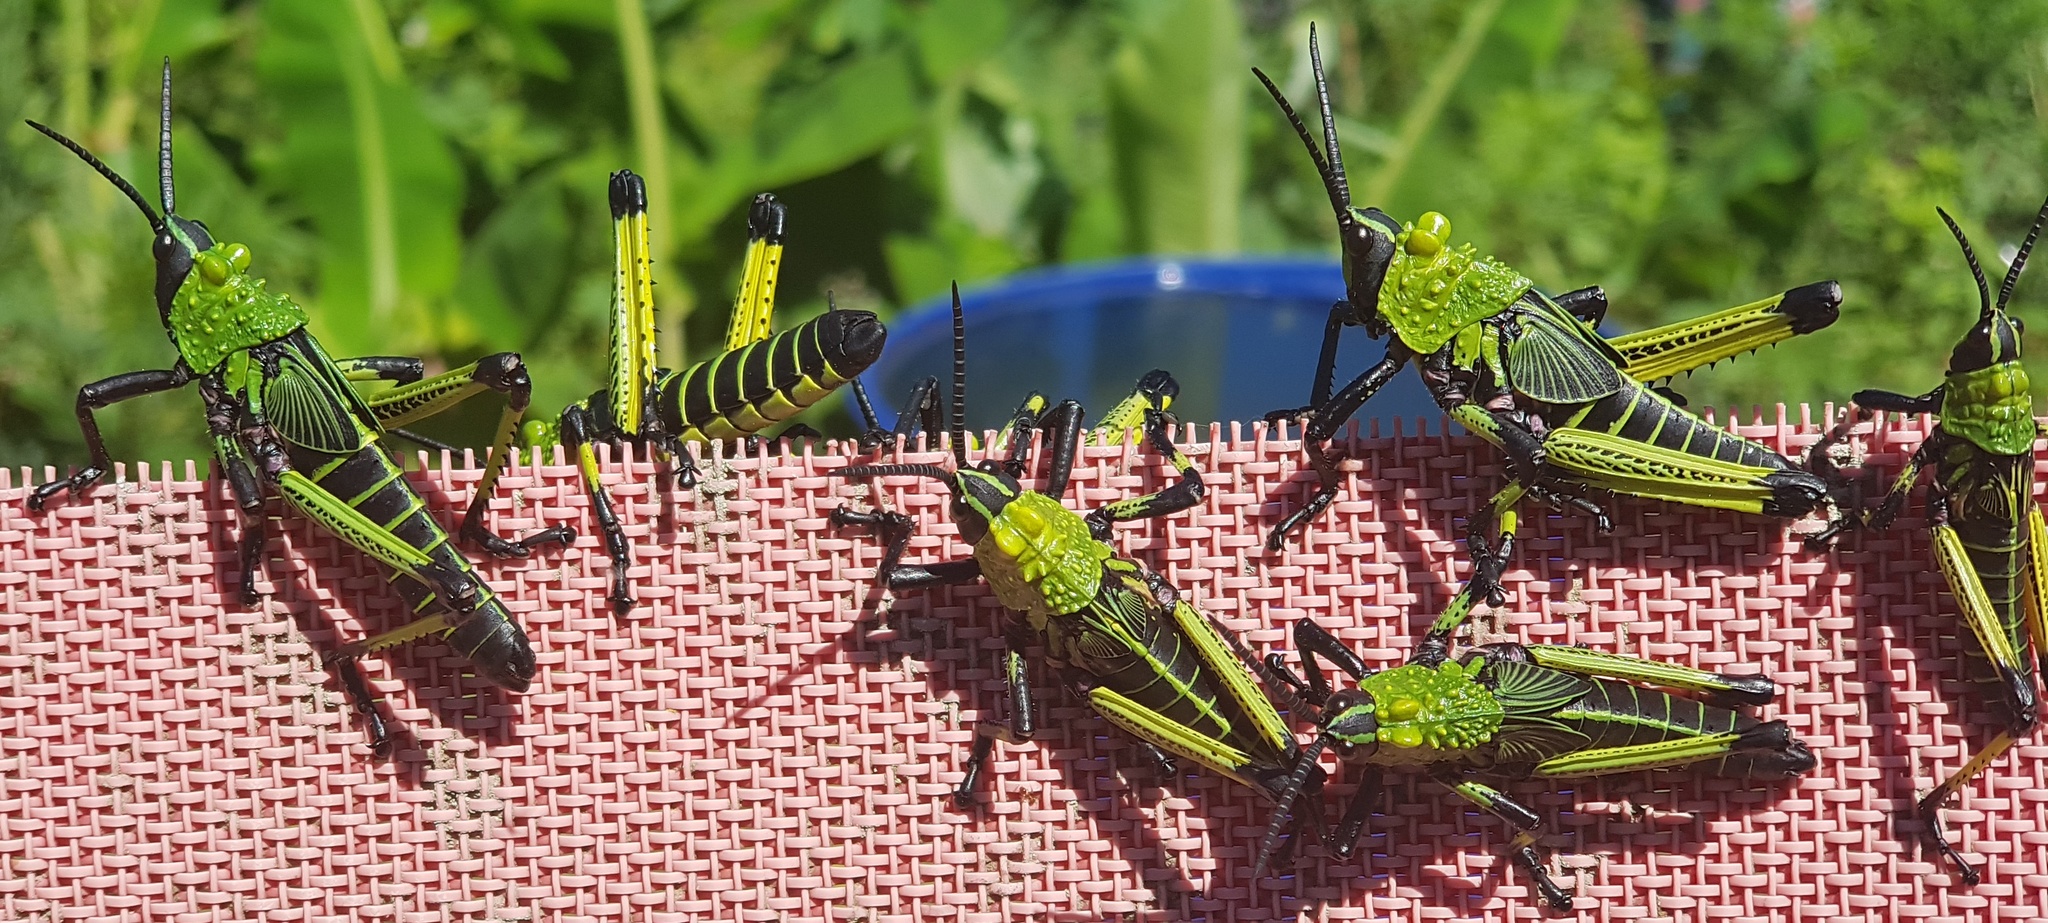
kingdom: Animalia
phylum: Arthropoda
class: Insecta
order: Orthoptera
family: Pyrgomorphidae
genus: Phymateus
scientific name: Phymateus leprosus
